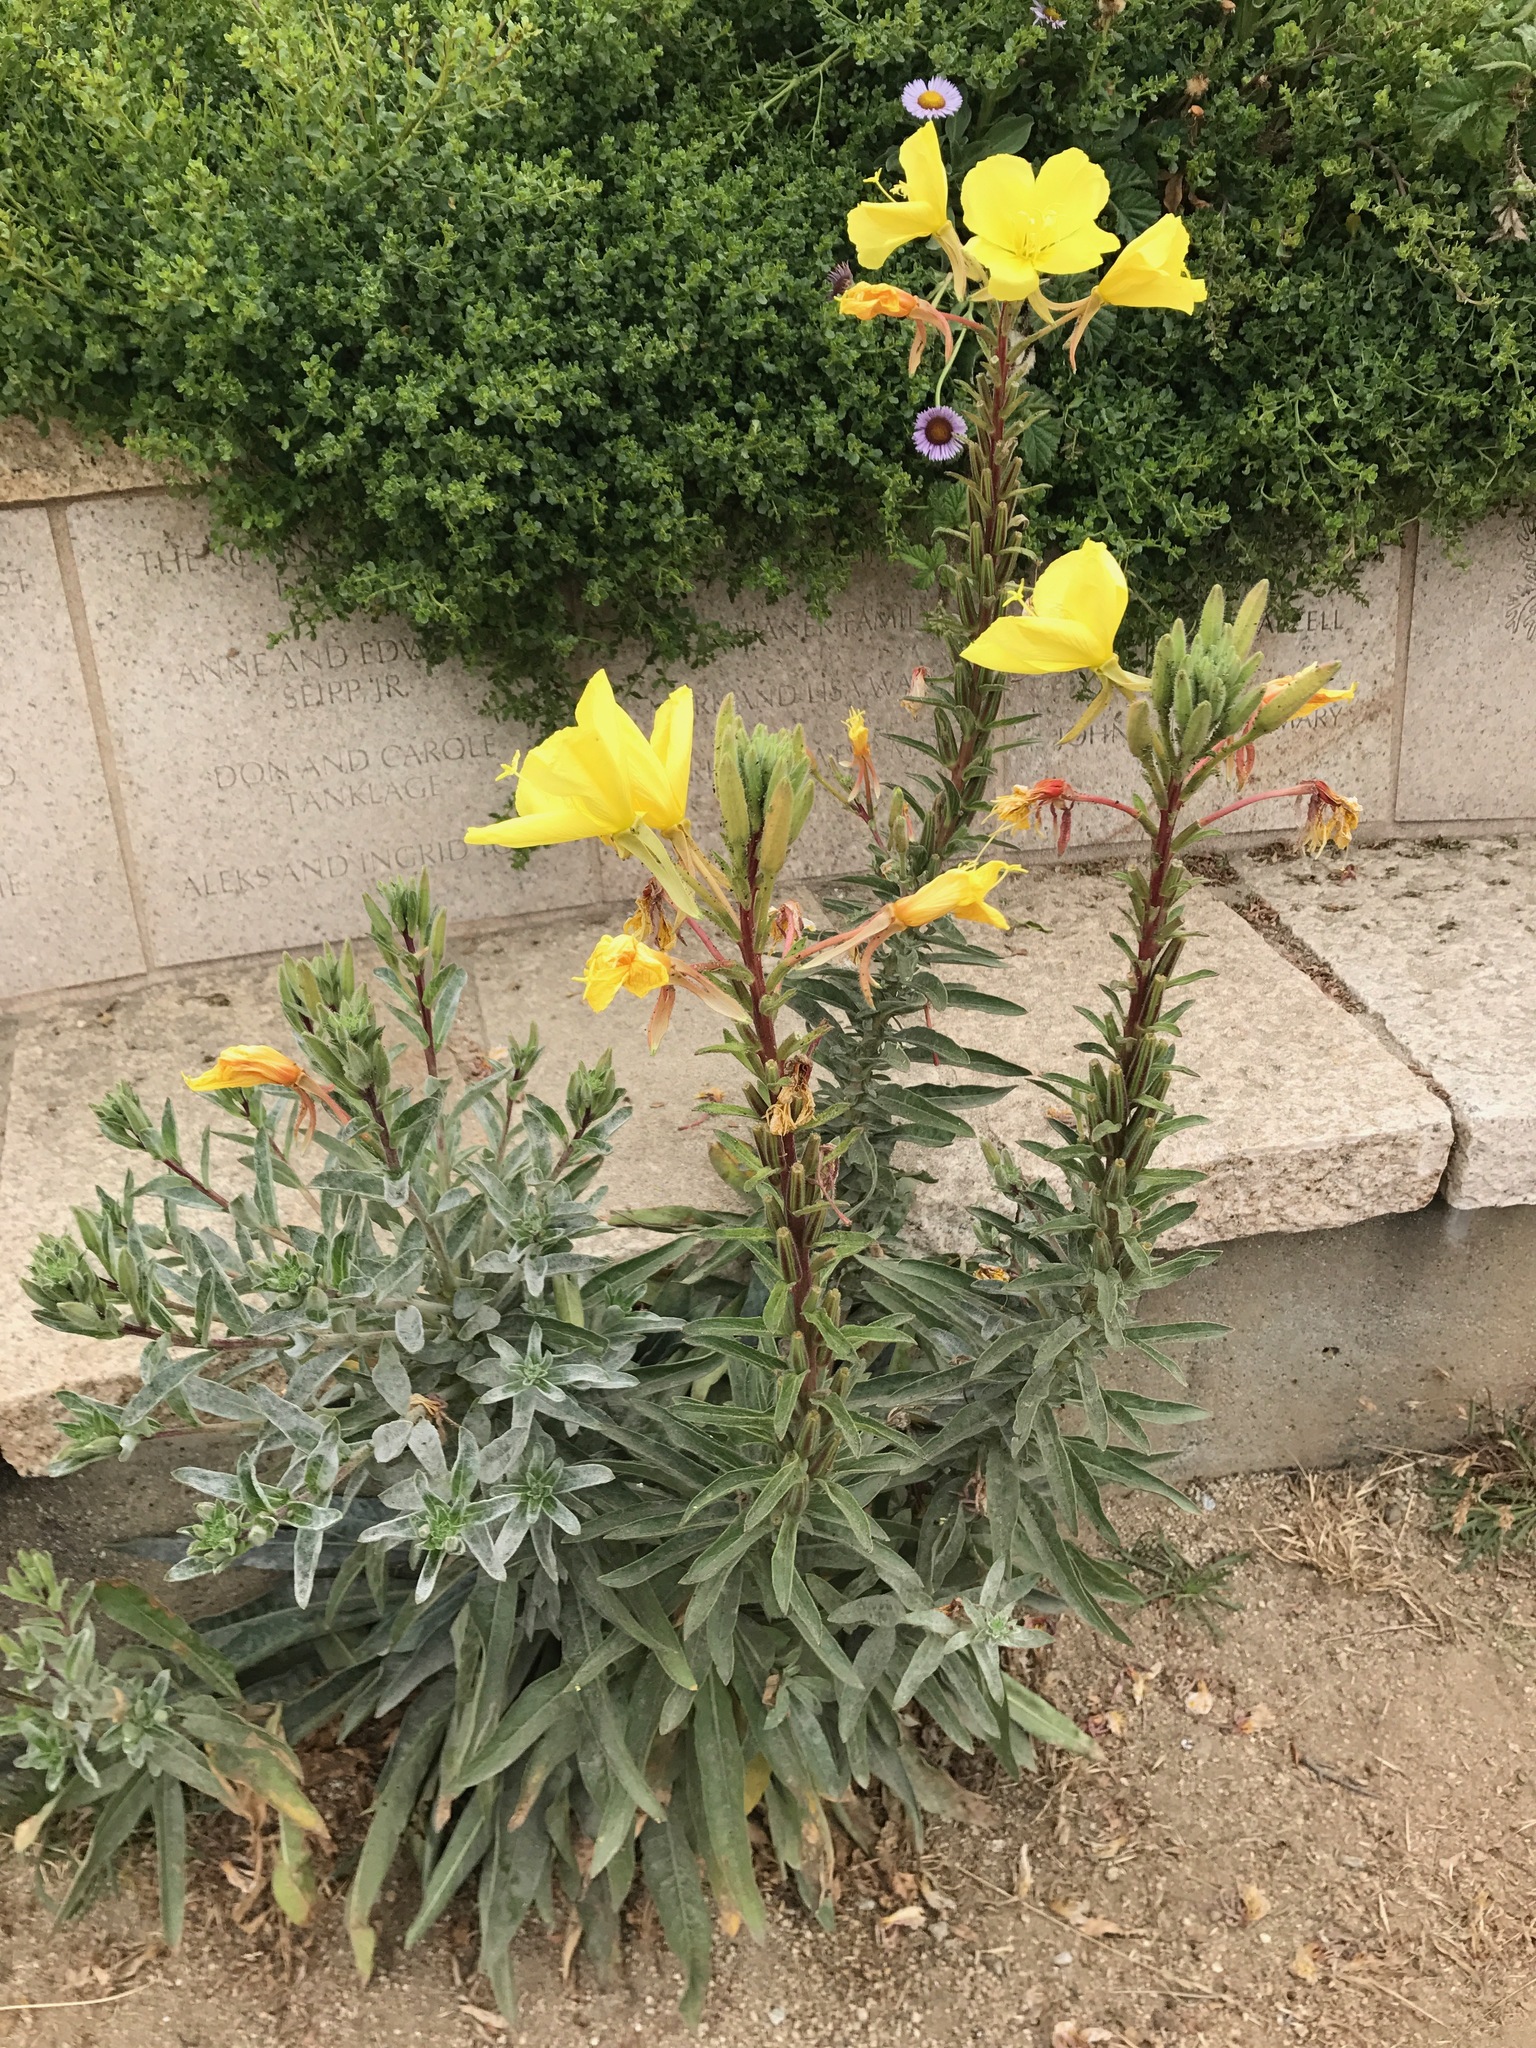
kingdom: Plantae
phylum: Tracheophyta
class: Magnoliopsida
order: Myrtales
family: Onagraceae
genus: Oenothera
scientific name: Oenothera elata
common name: Hooker's evening-primrose
